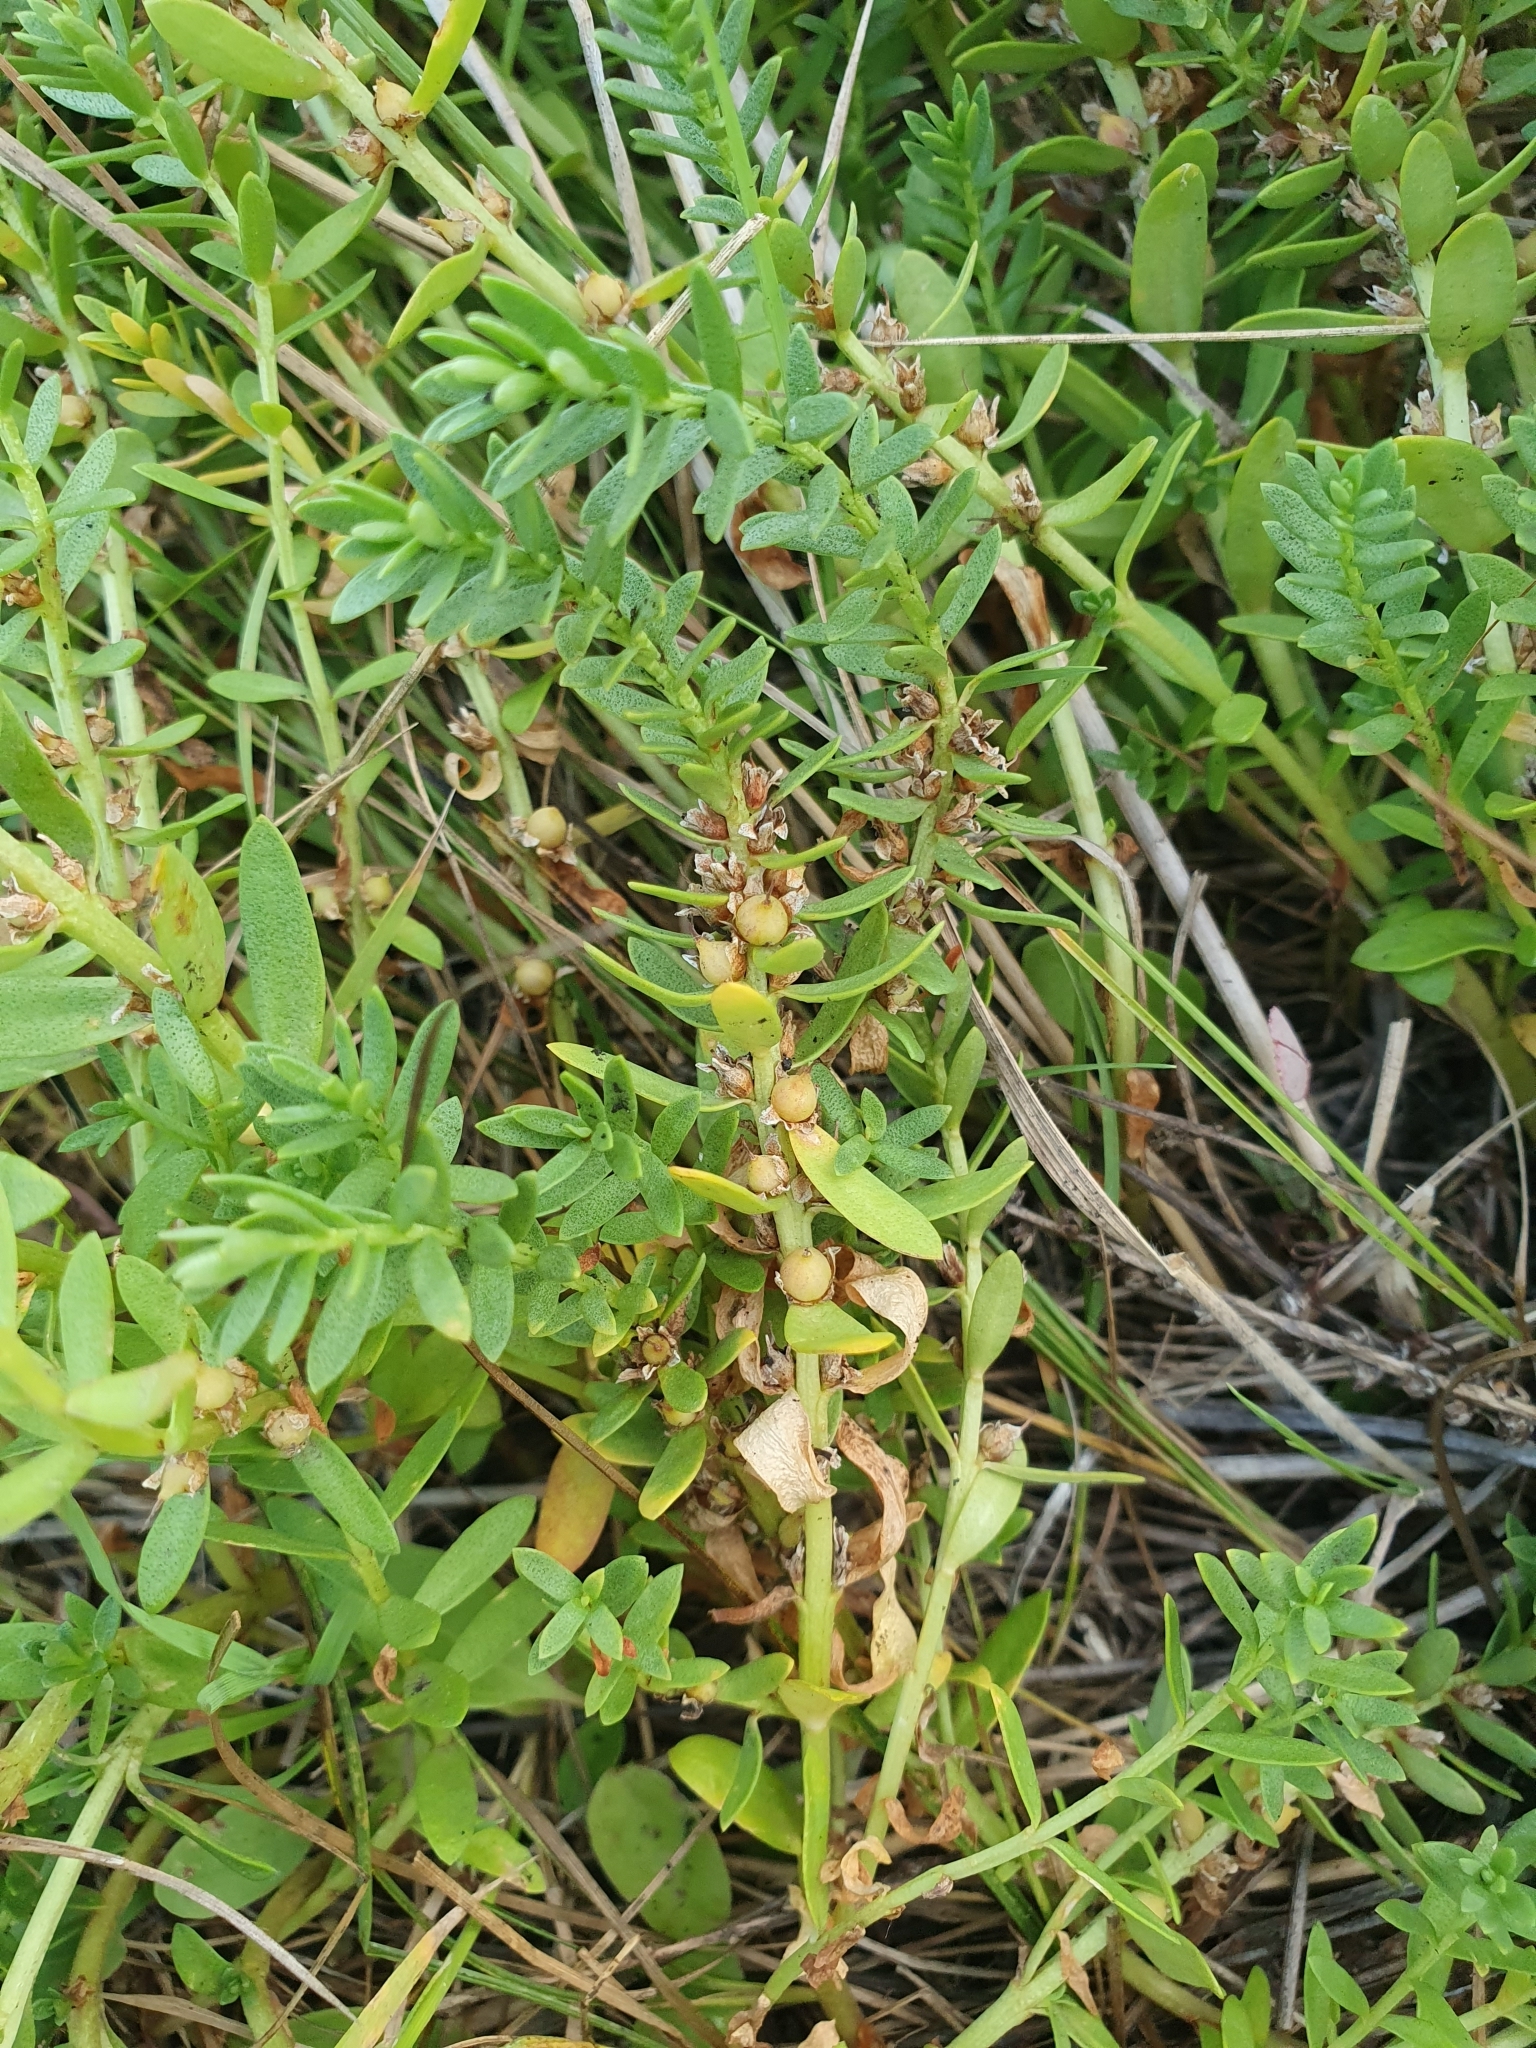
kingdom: Plantae
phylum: Tracheophyta
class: Magnoliopsida
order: Ericales
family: Primulaceae
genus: Lysimachia
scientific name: Lysimachia maritima
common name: Sea milkwort
